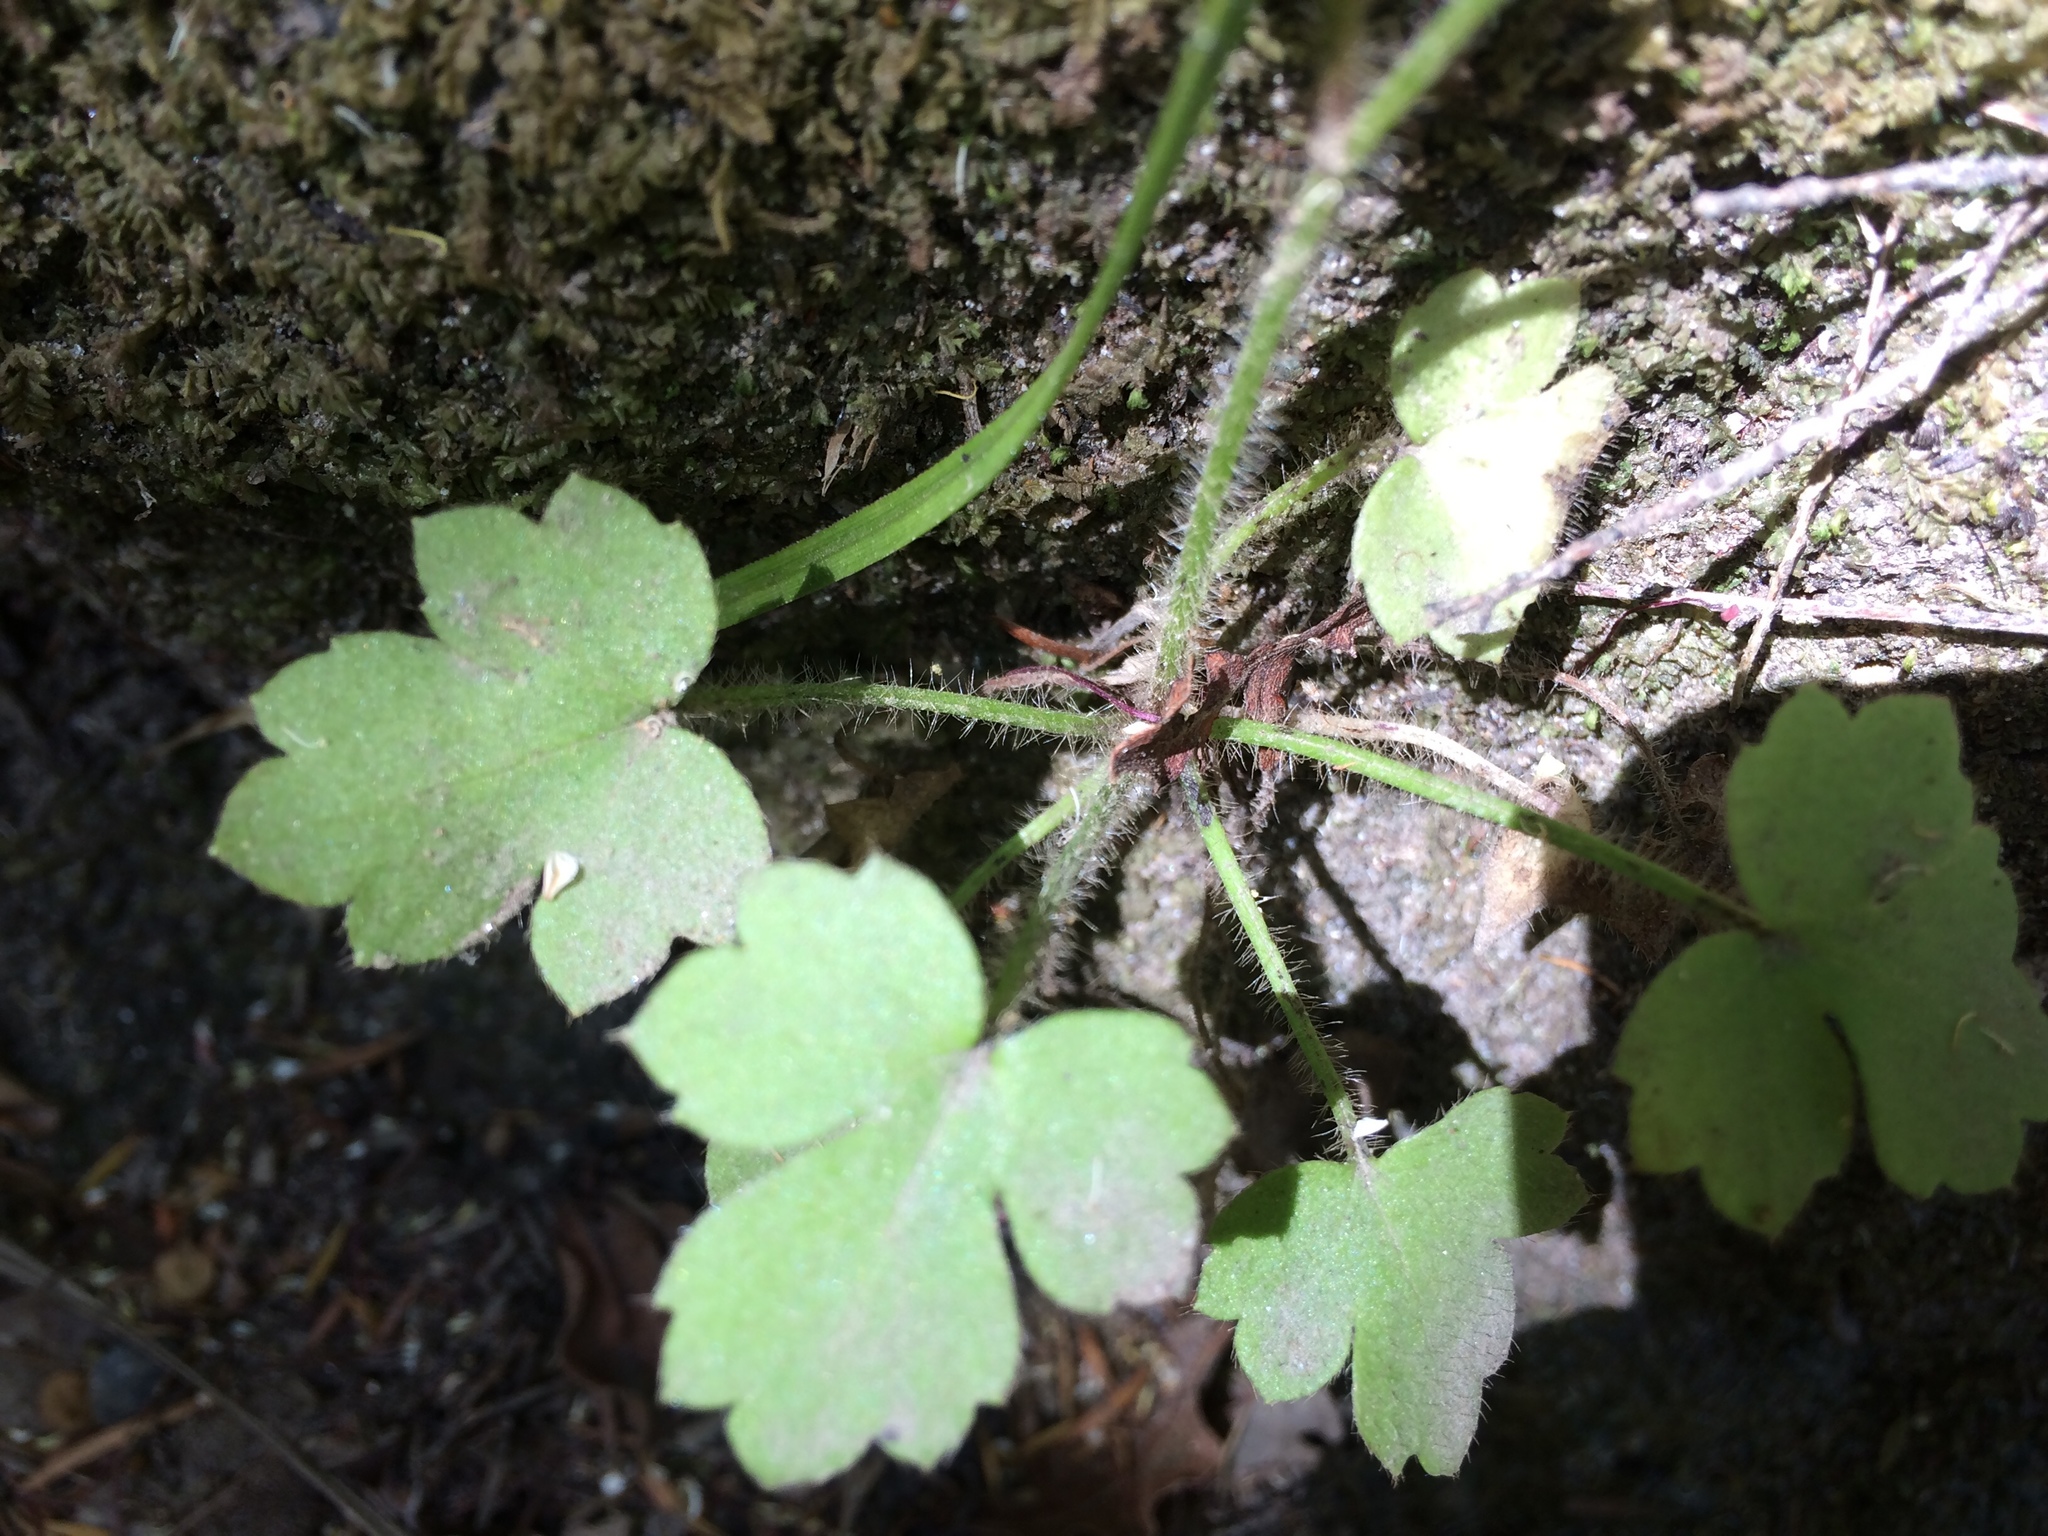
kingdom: Plantae
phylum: Tracheophyta
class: Magnoliopsida
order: Ranunculales
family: Ranunculaceae
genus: Ranunculus
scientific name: Ranunculus reflexus
